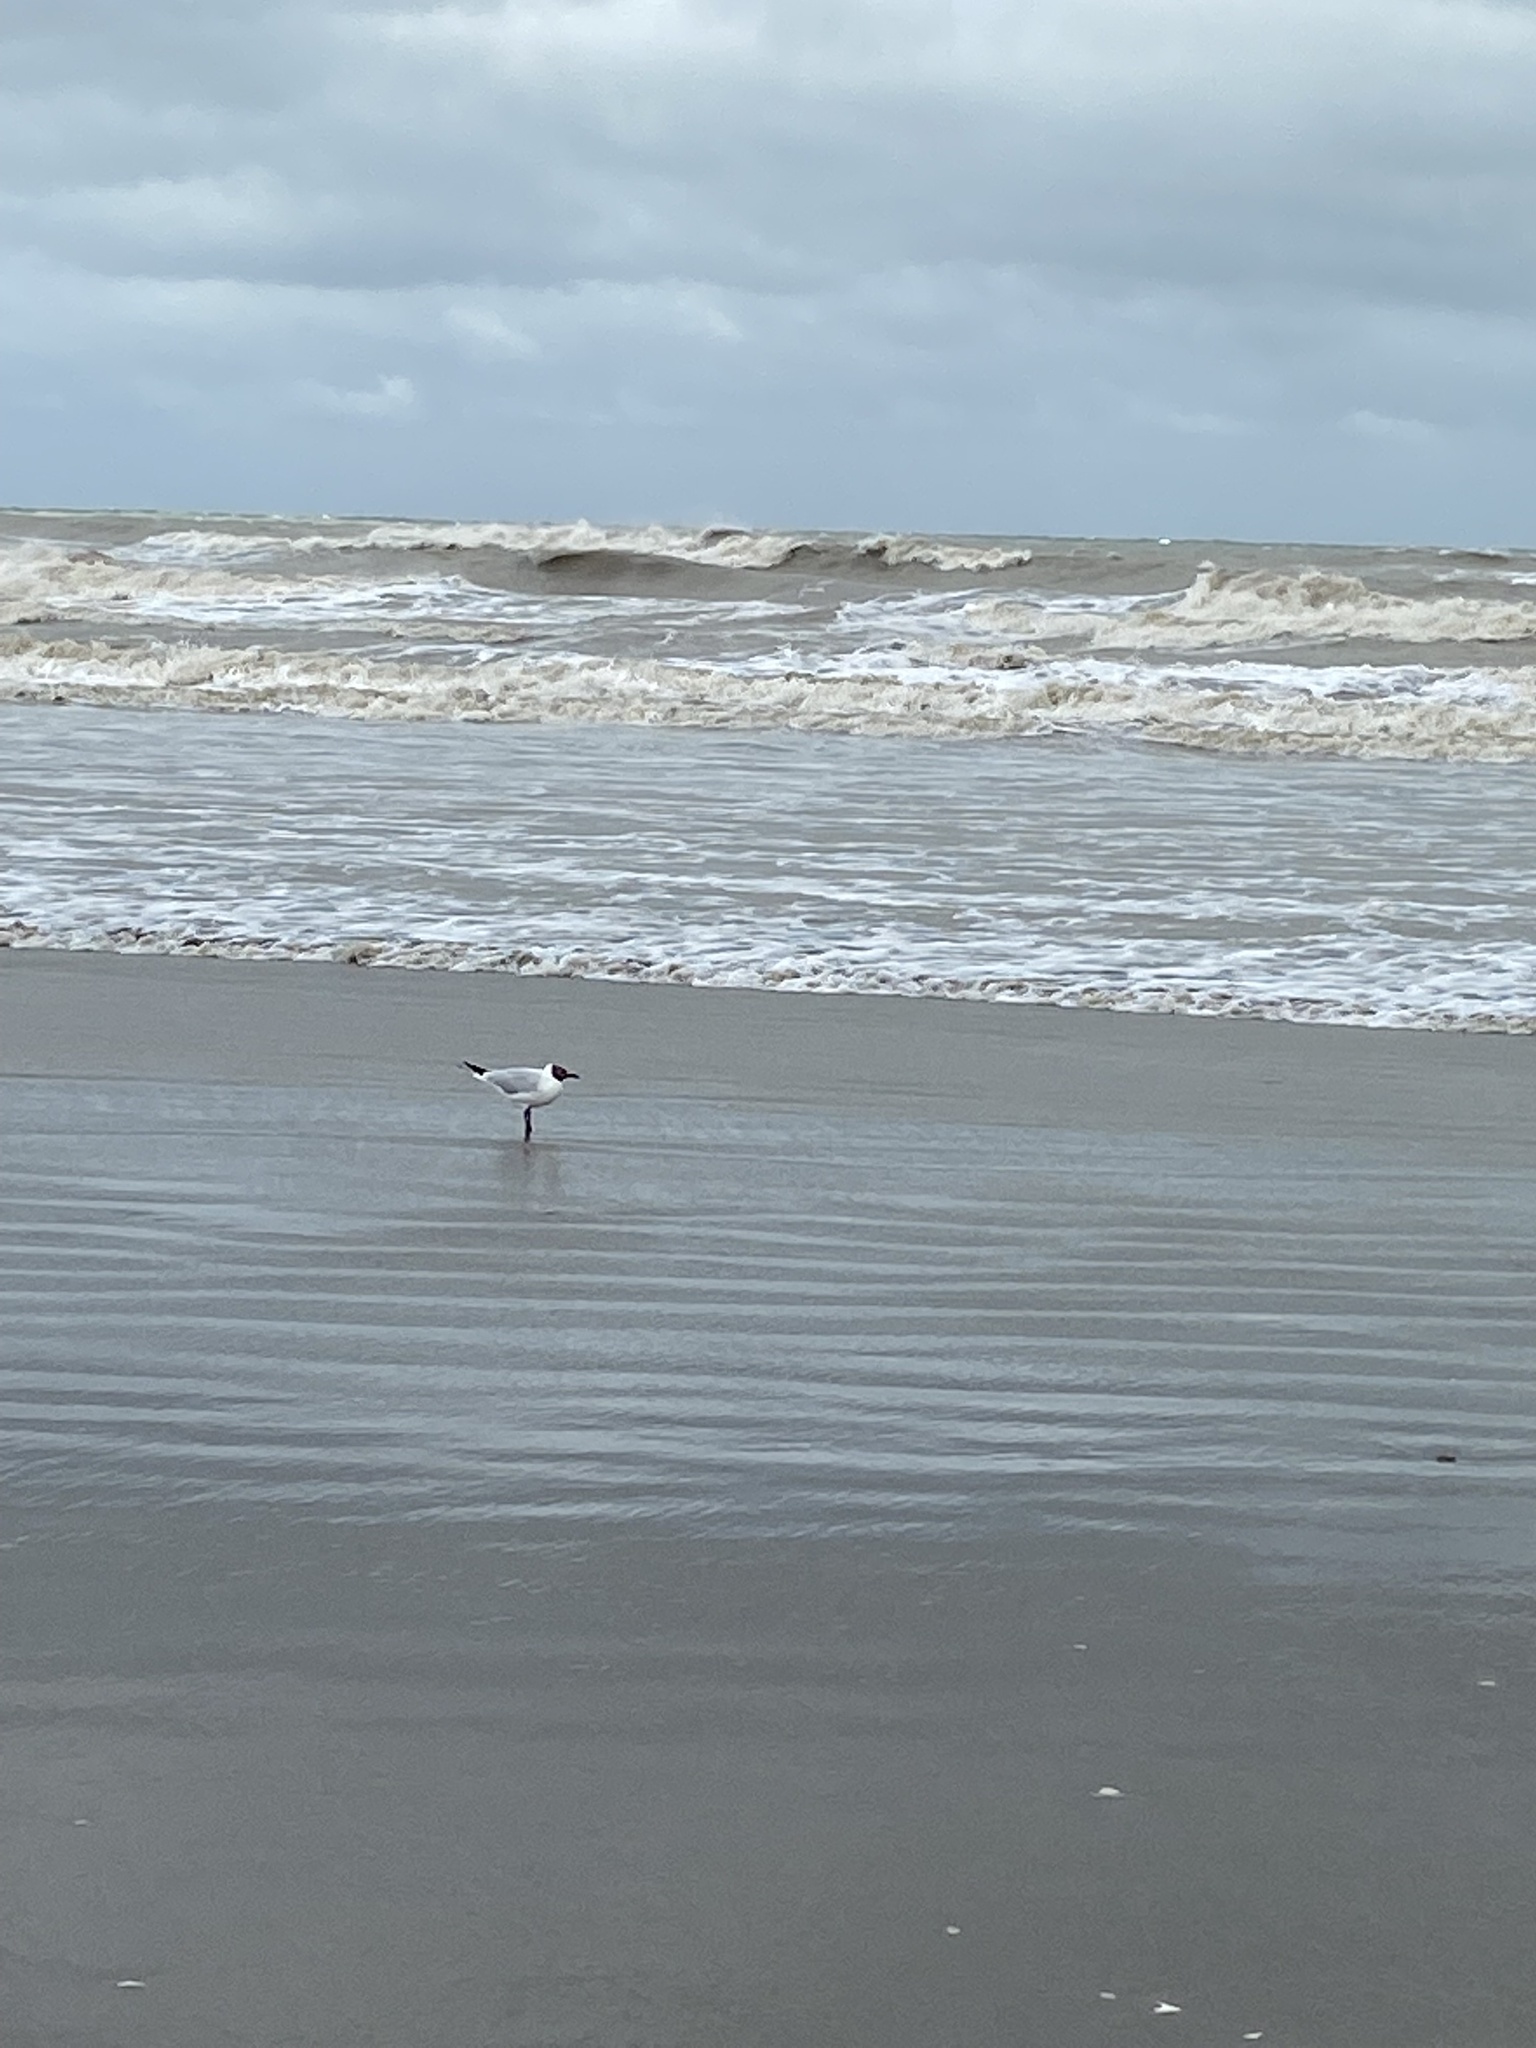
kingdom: Animalia
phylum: Chordata
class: Aves
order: Charadriiformes
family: Laridae
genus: Chroicocephalus
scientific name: Chroicocephalus maculipennis
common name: Brown-hooded gull
